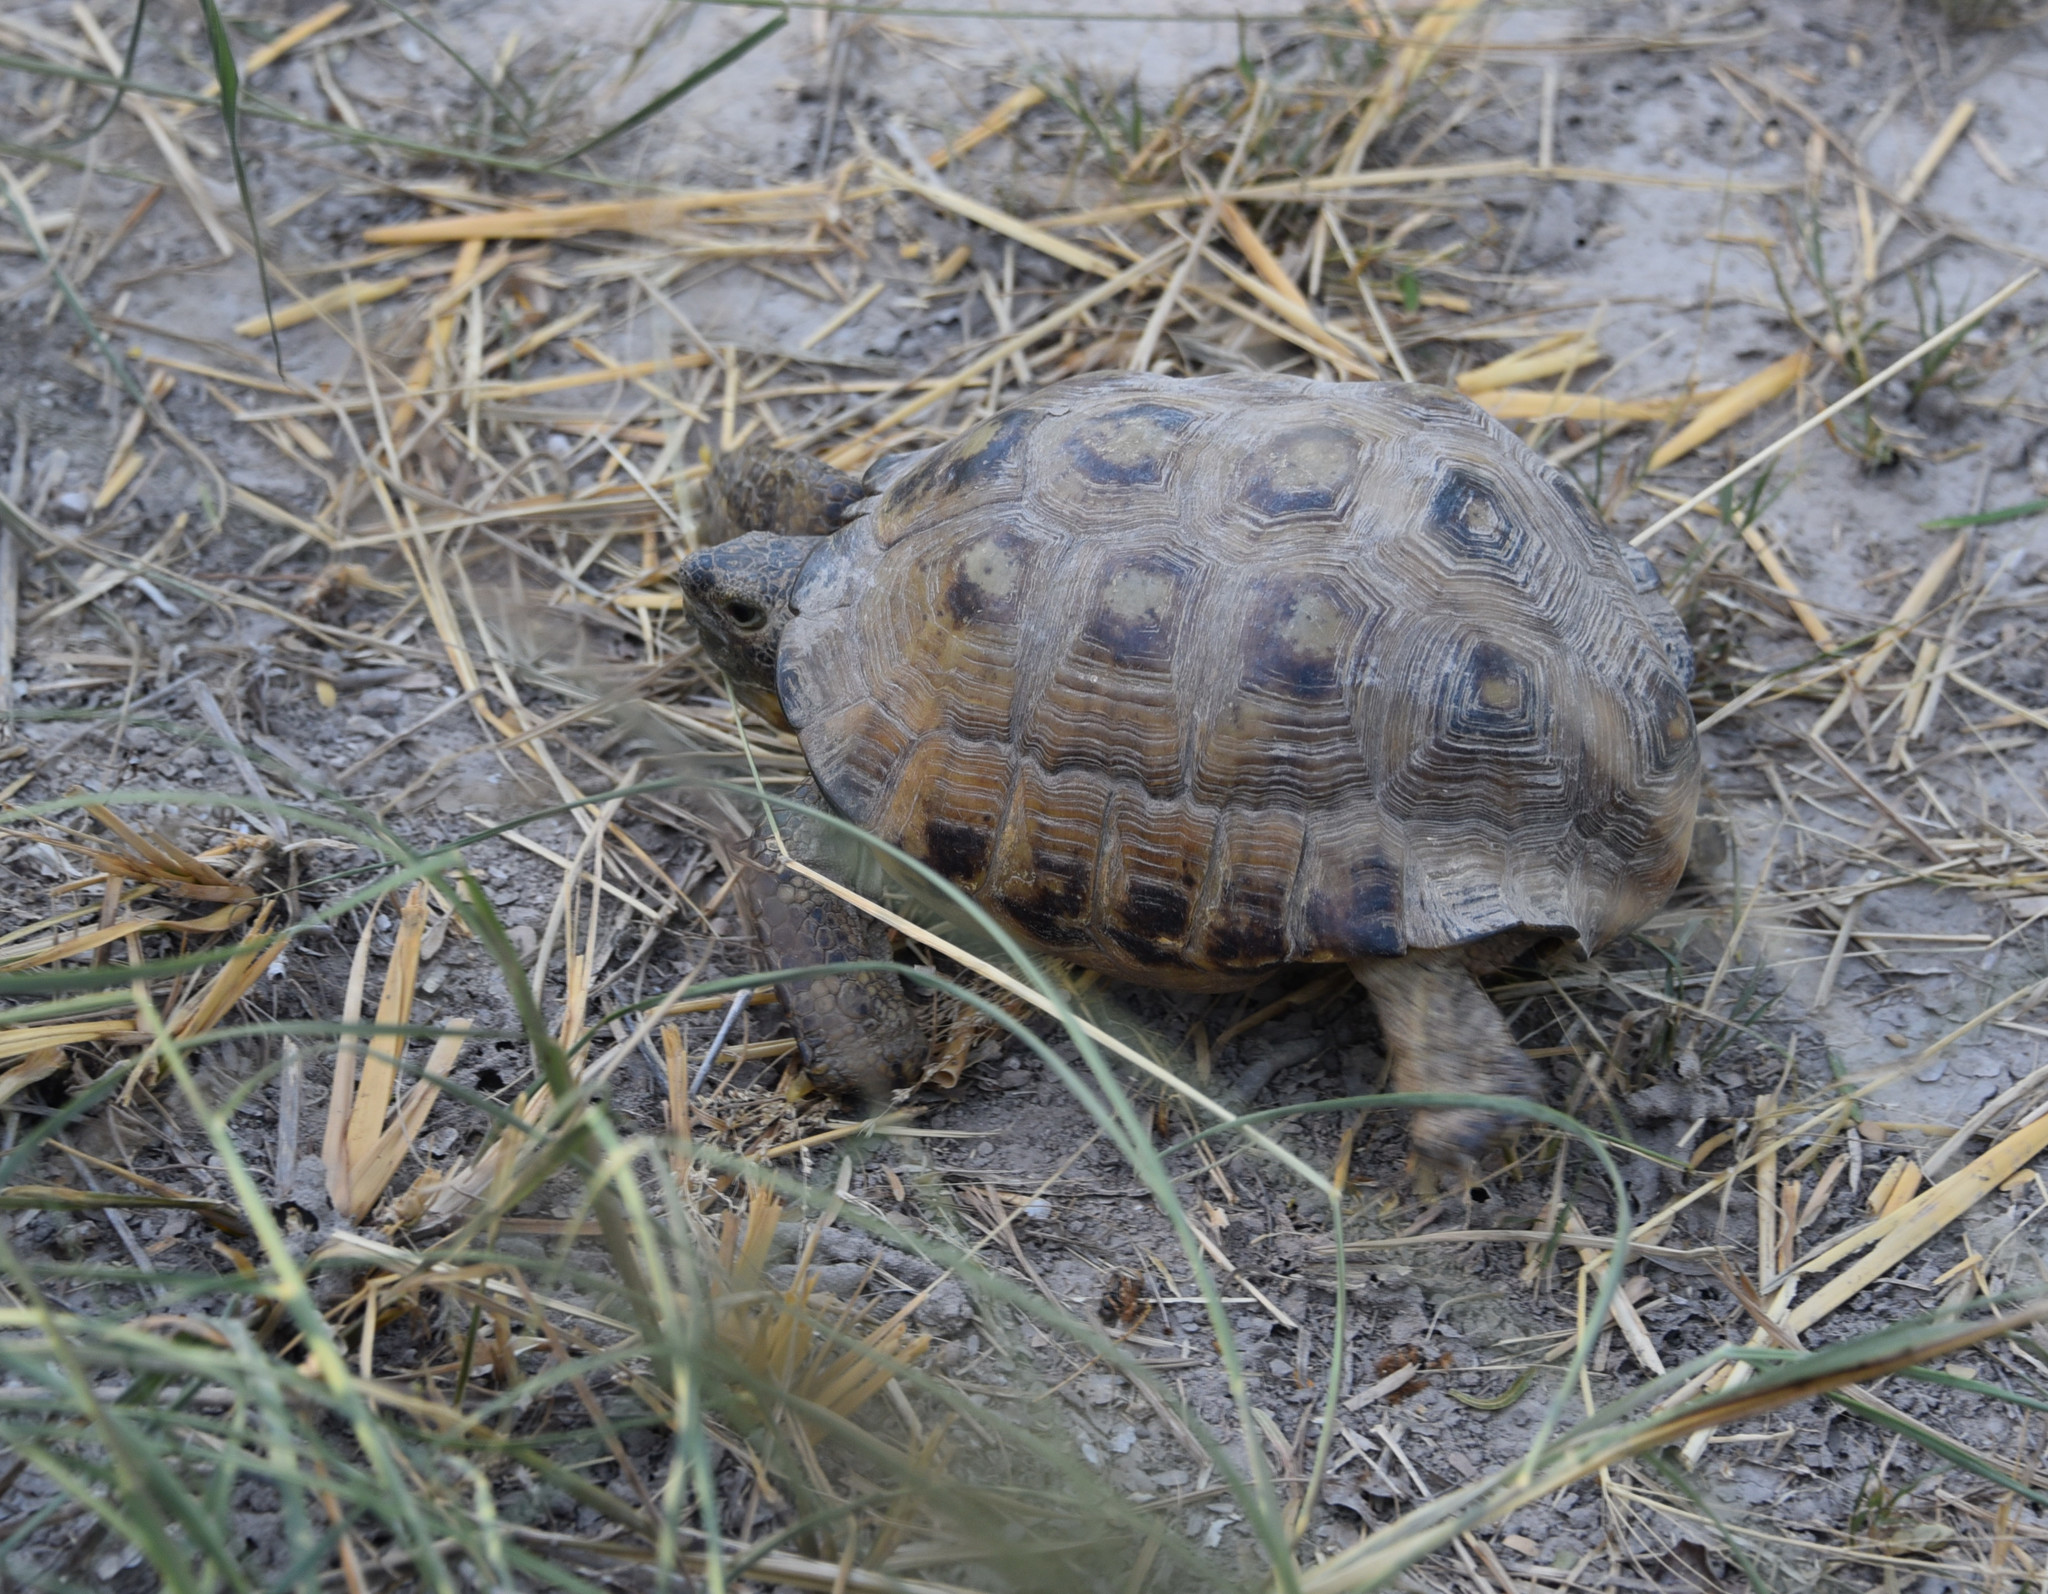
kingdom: Animalia
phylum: Chordata
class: Testudines
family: Testudinidae
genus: Gopherus
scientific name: Gopherus berlandieri
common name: Texas (gopher )tortoise
